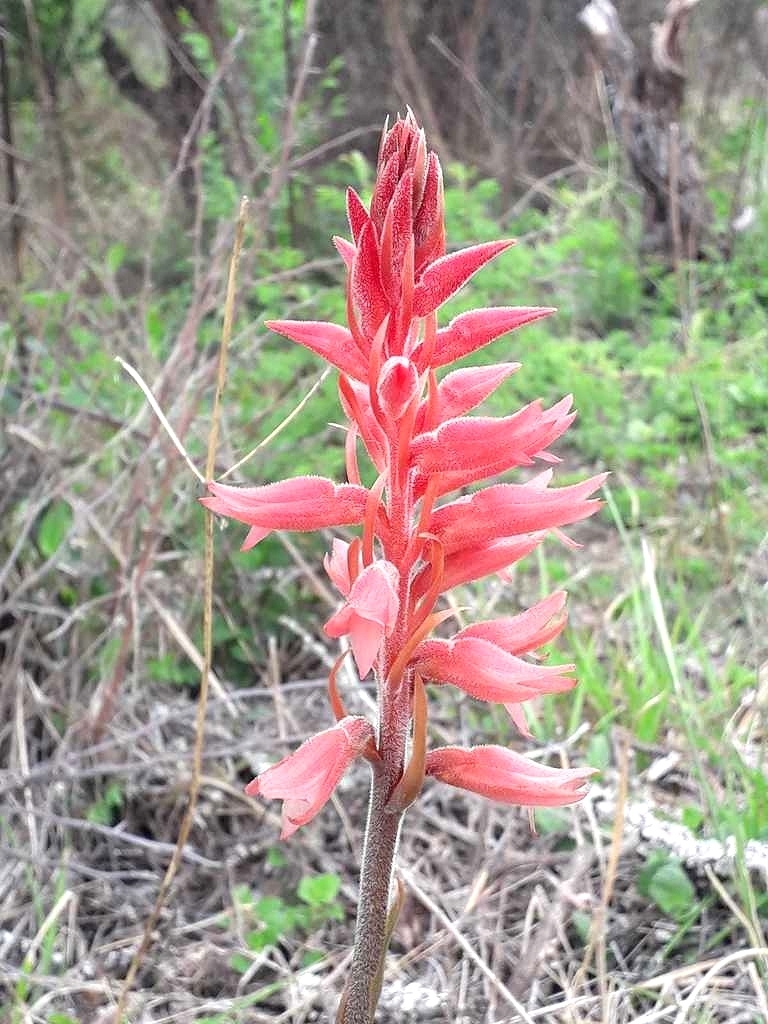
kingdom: Plantae
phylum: Tracheophyta
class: Liliopsida
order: Asparagales
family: Orchidaceae
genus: Sacoila
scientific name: Sacoila lanceolata
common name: Leafless beaked ladiestresses
